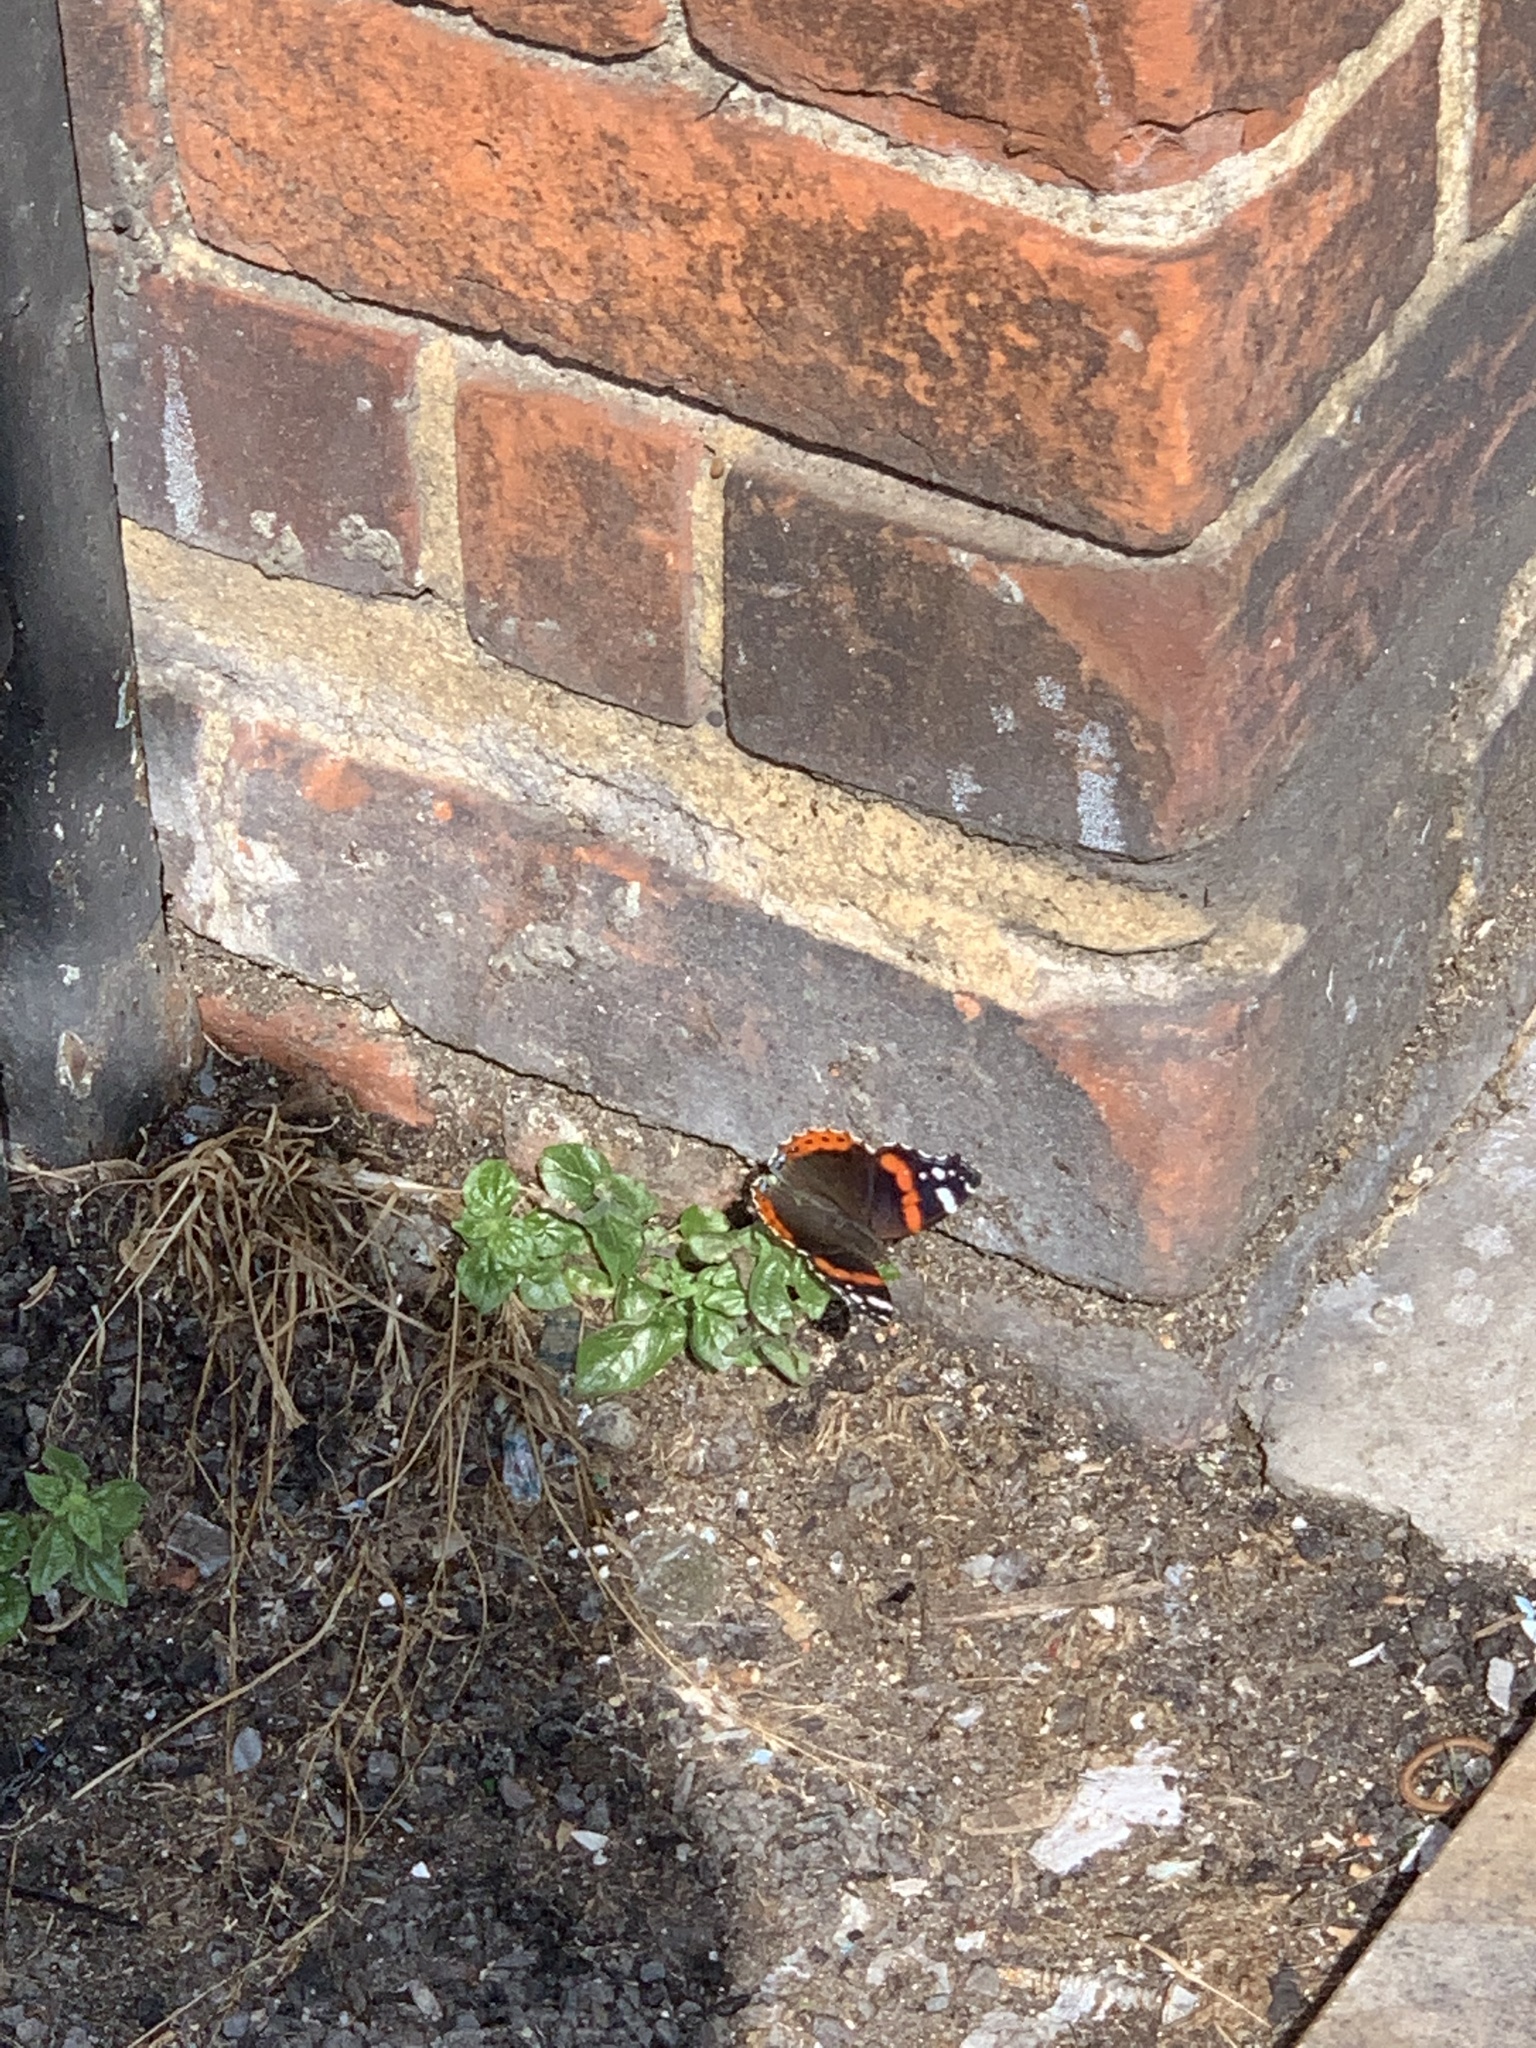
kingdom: Animalia
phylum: Arthropoda
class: Insecta
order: Lepidoptera
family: Nymphalidae
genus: Vanessa
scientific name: Vanessa atalanta
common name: Red admiral
